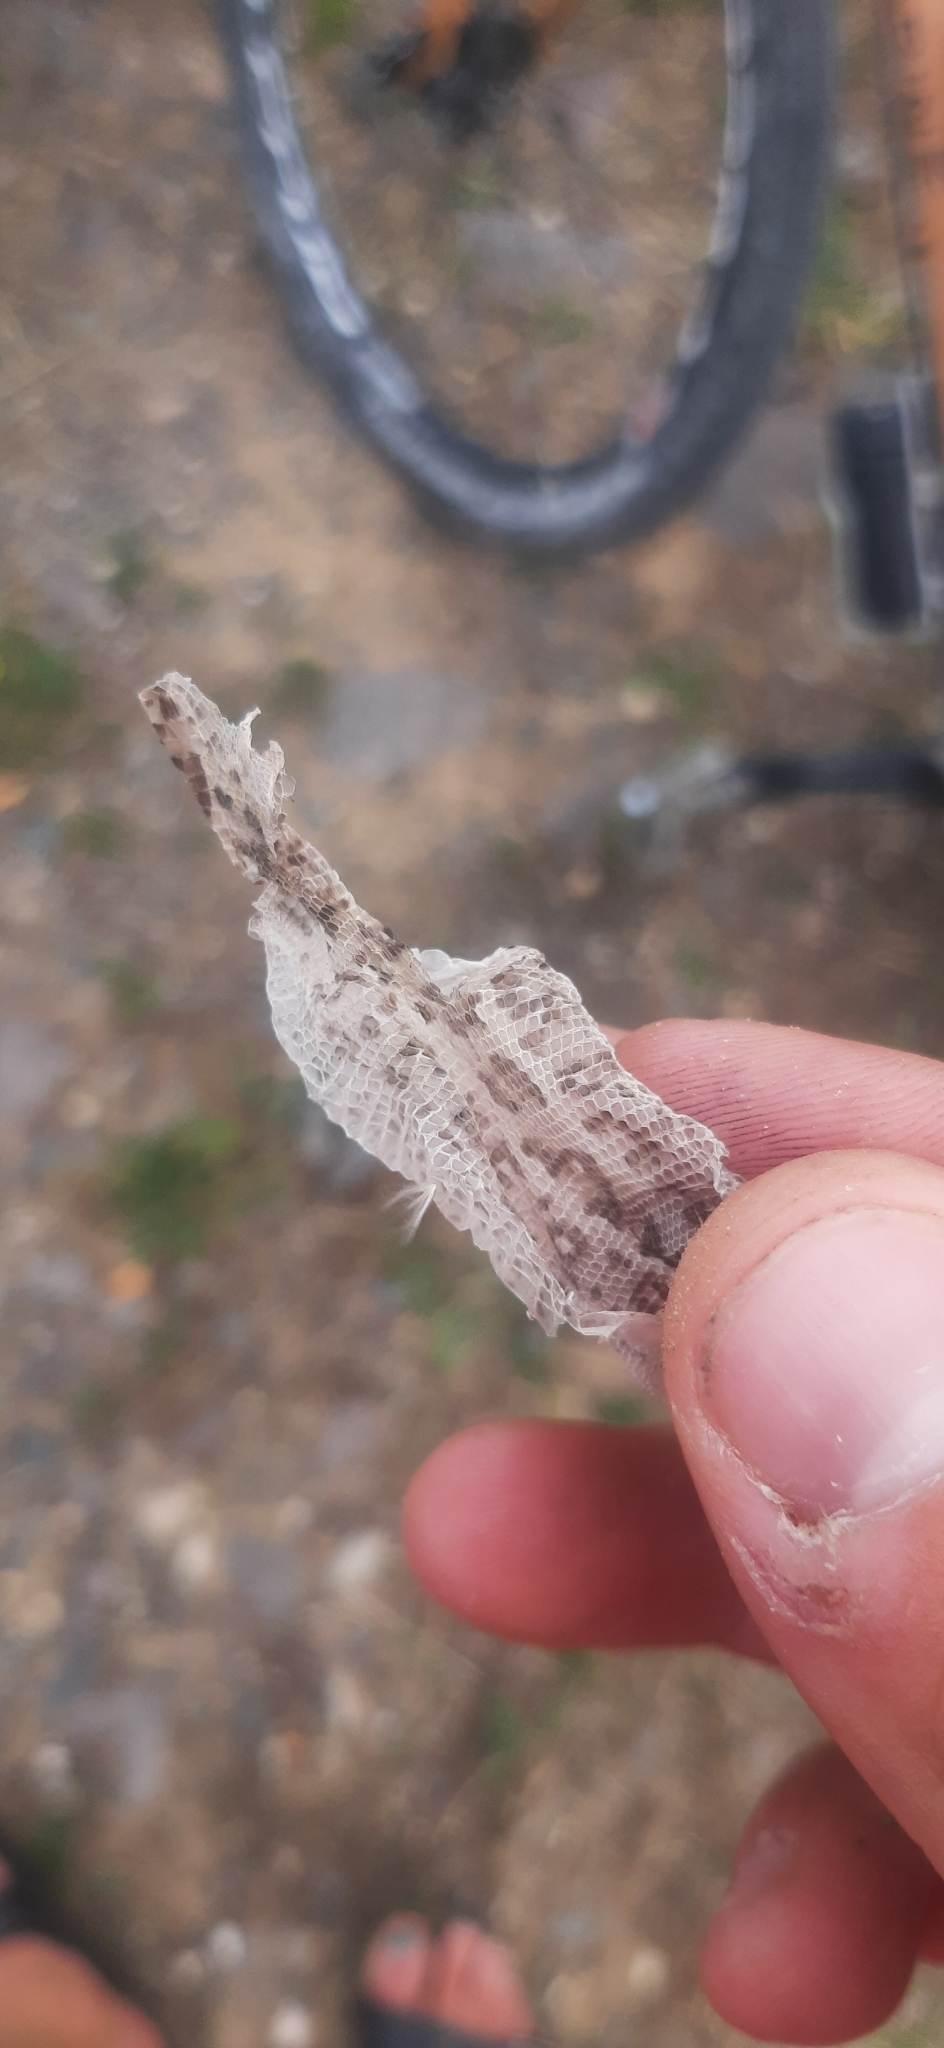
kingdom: Animalia
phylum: Chordata
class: Squamata
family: Lacertidae
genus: Lacerta
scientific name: Lacerta agilis
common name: Sand lizard
